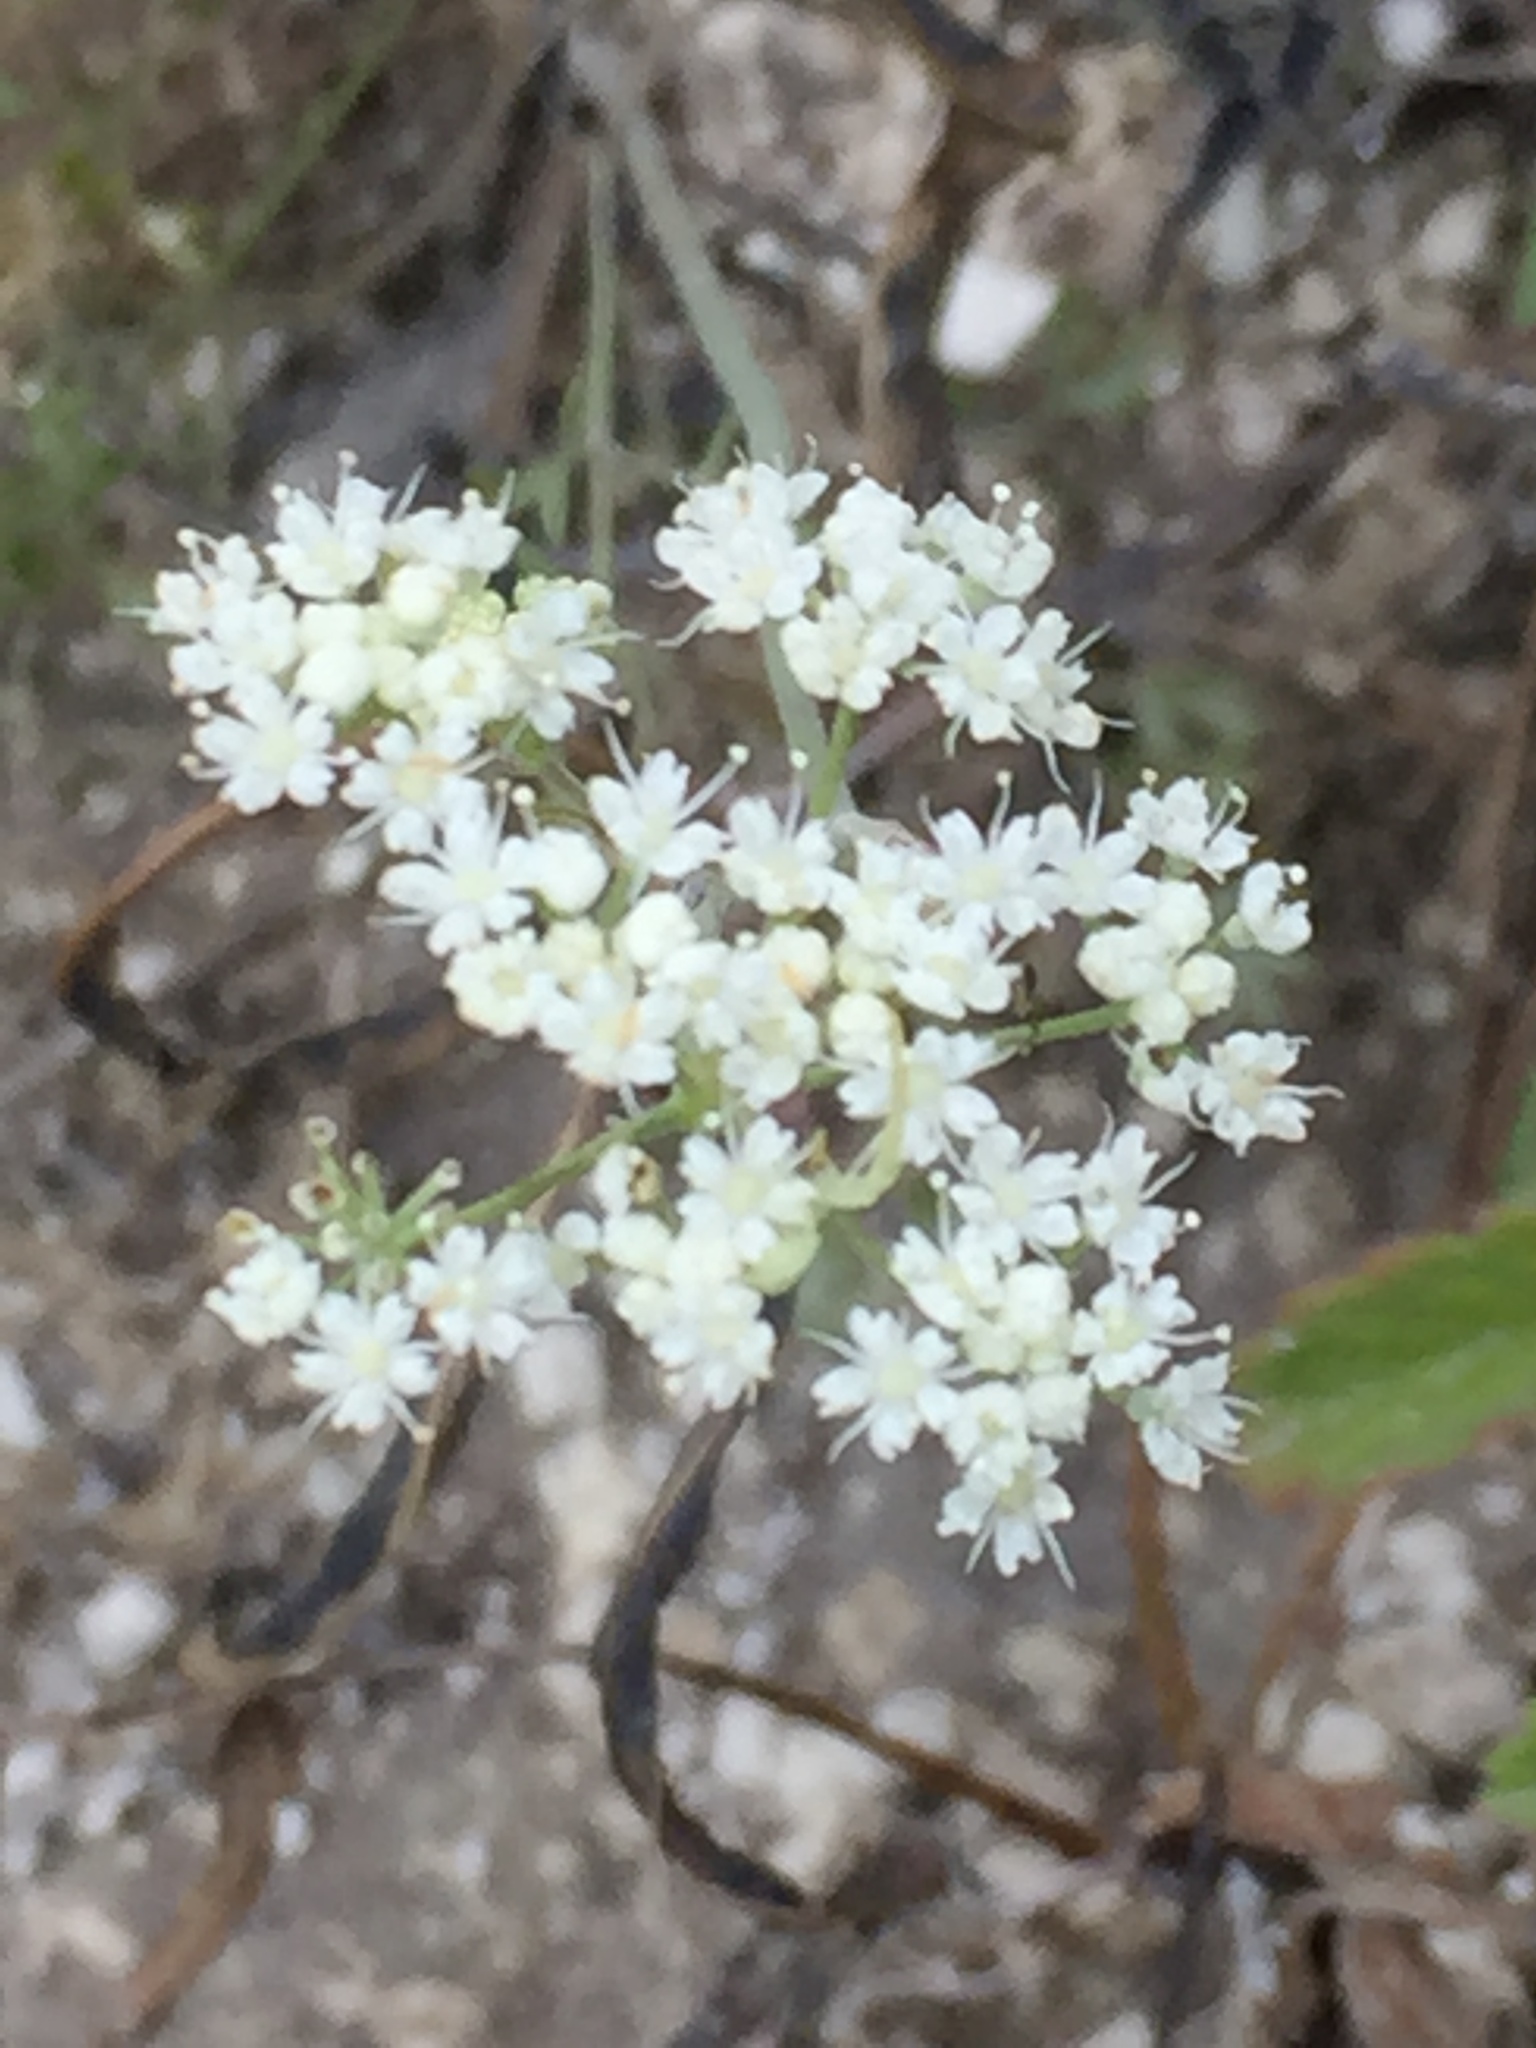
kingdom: Plantae
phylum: Tracheophyta
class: Magnoliopsida
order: Apiales
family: Apiaceae
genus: Pimpinella
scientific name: Pimpinella tragium
